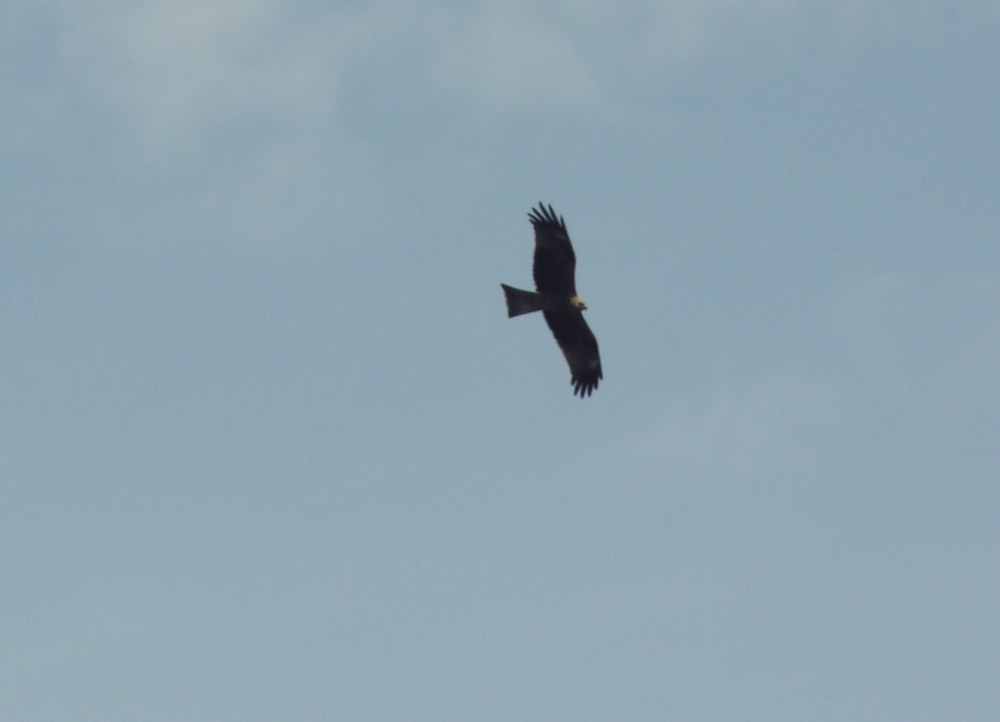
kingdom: Animalia
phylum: Chordata
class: Aves
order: Accipitriformes
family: Accipitridae
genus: Milvus
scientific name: Milvus migrans
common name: Black kite
